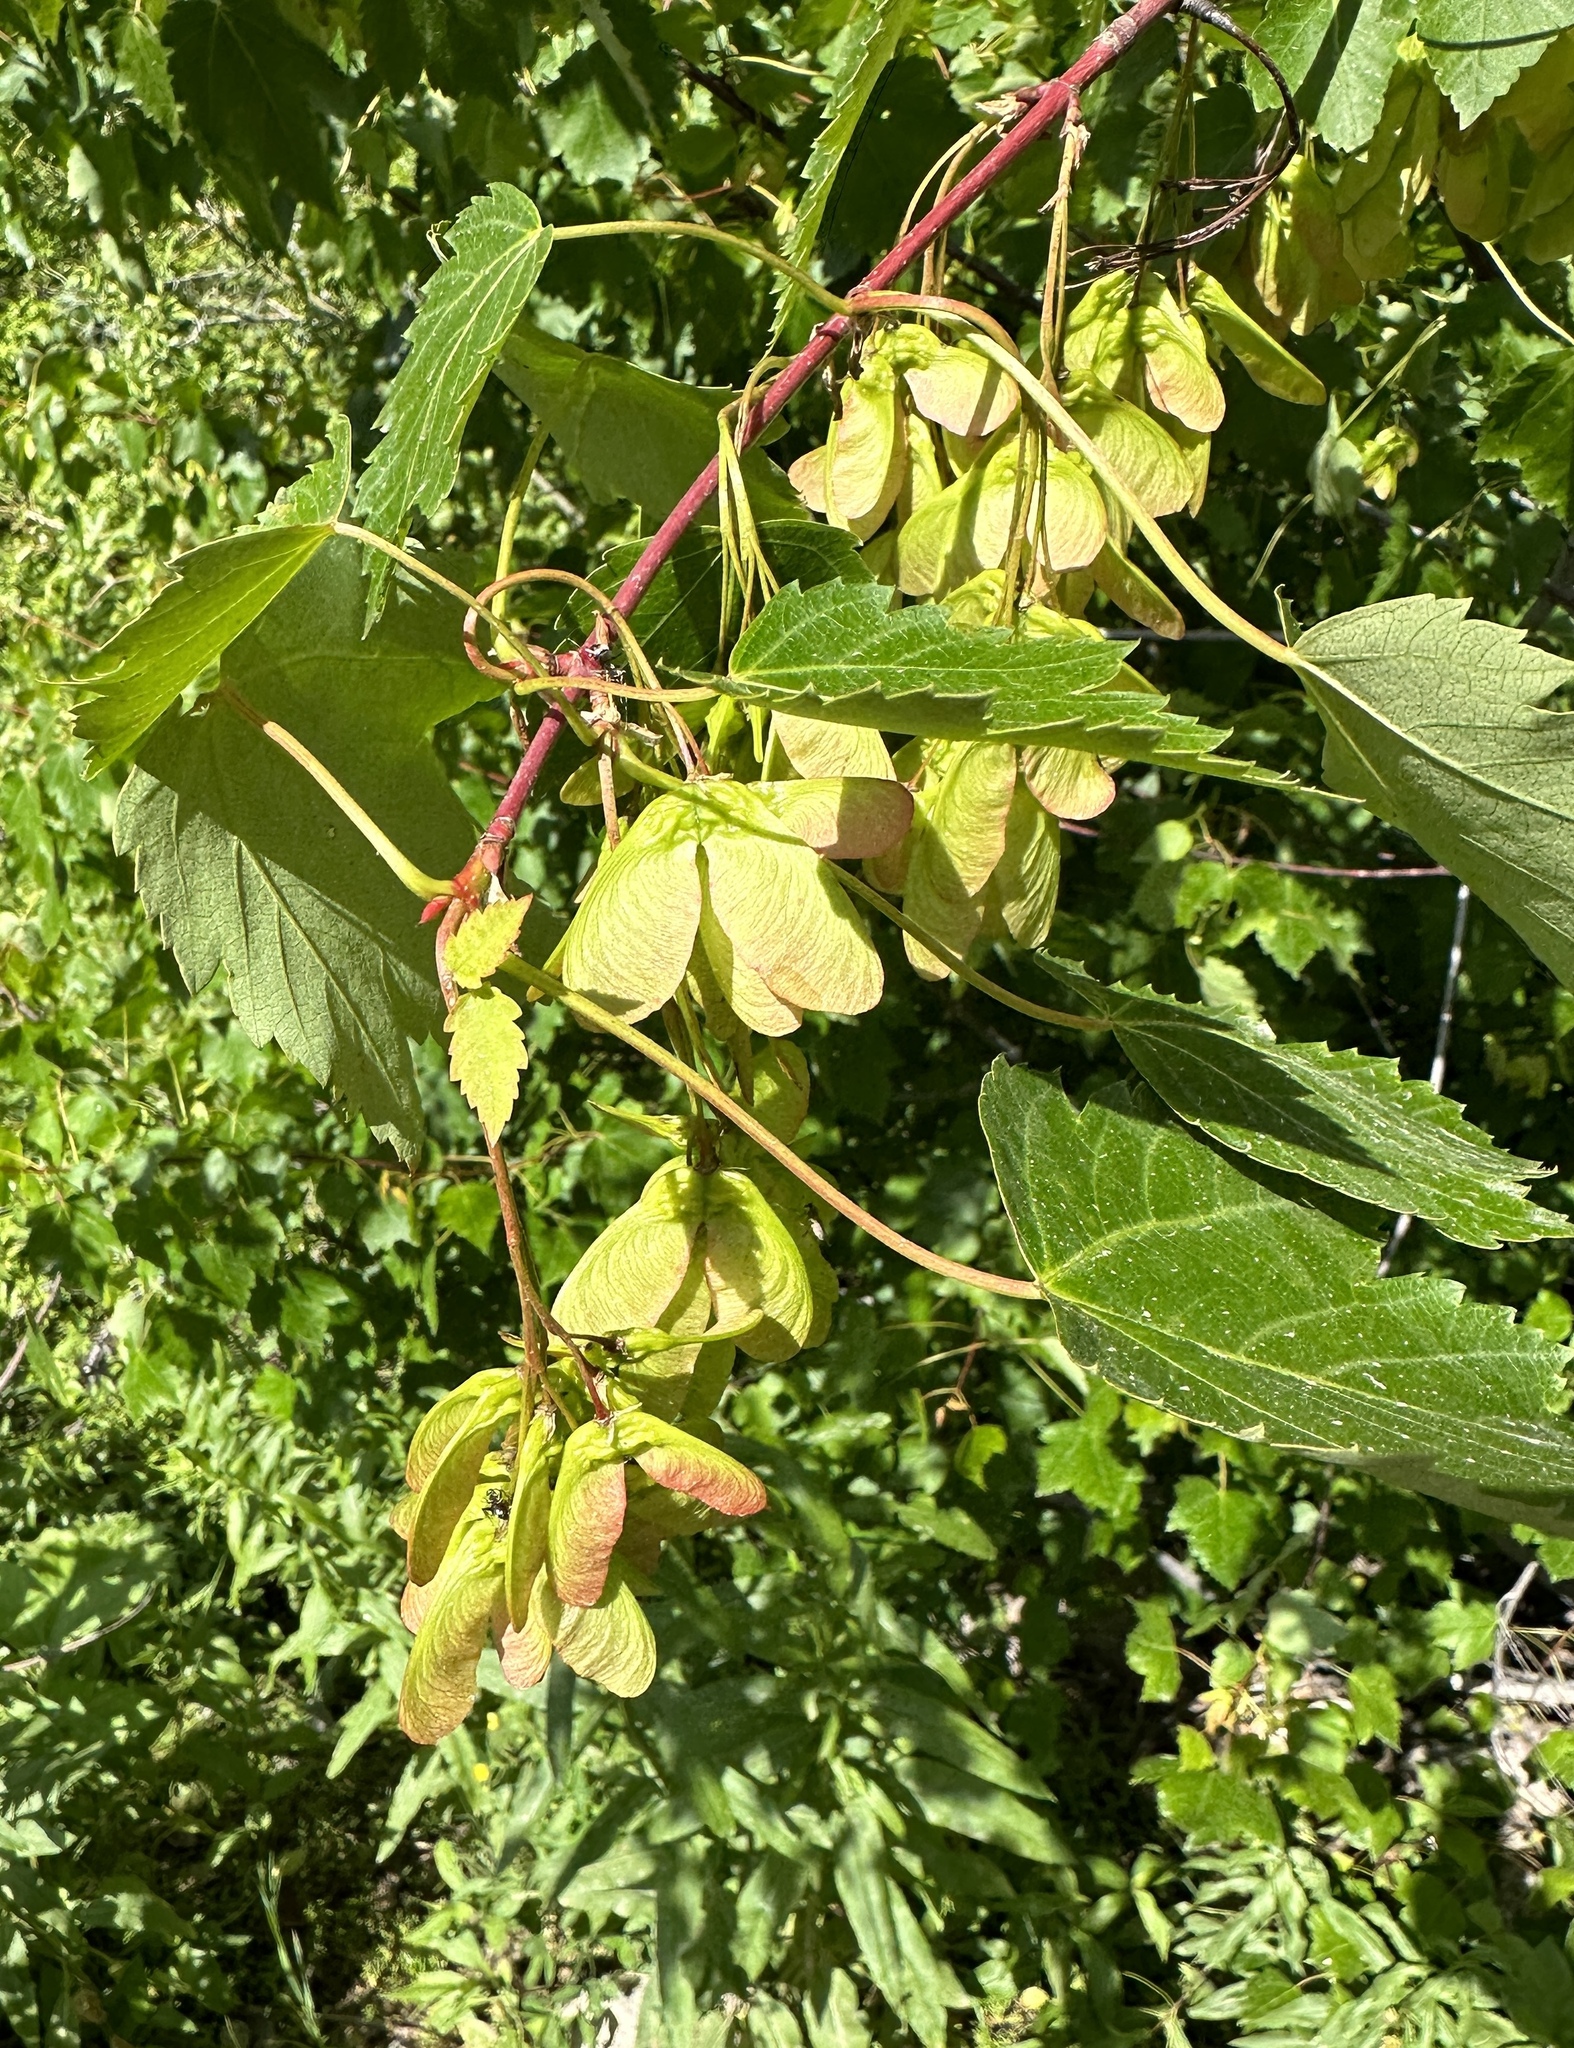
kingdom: Plantae
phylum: Tracheophyta
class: Magnoliopsida
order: Sapindales
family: Sapindaceae
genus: Acer
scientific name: Acer glabrum
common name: Rocky mountain maple
